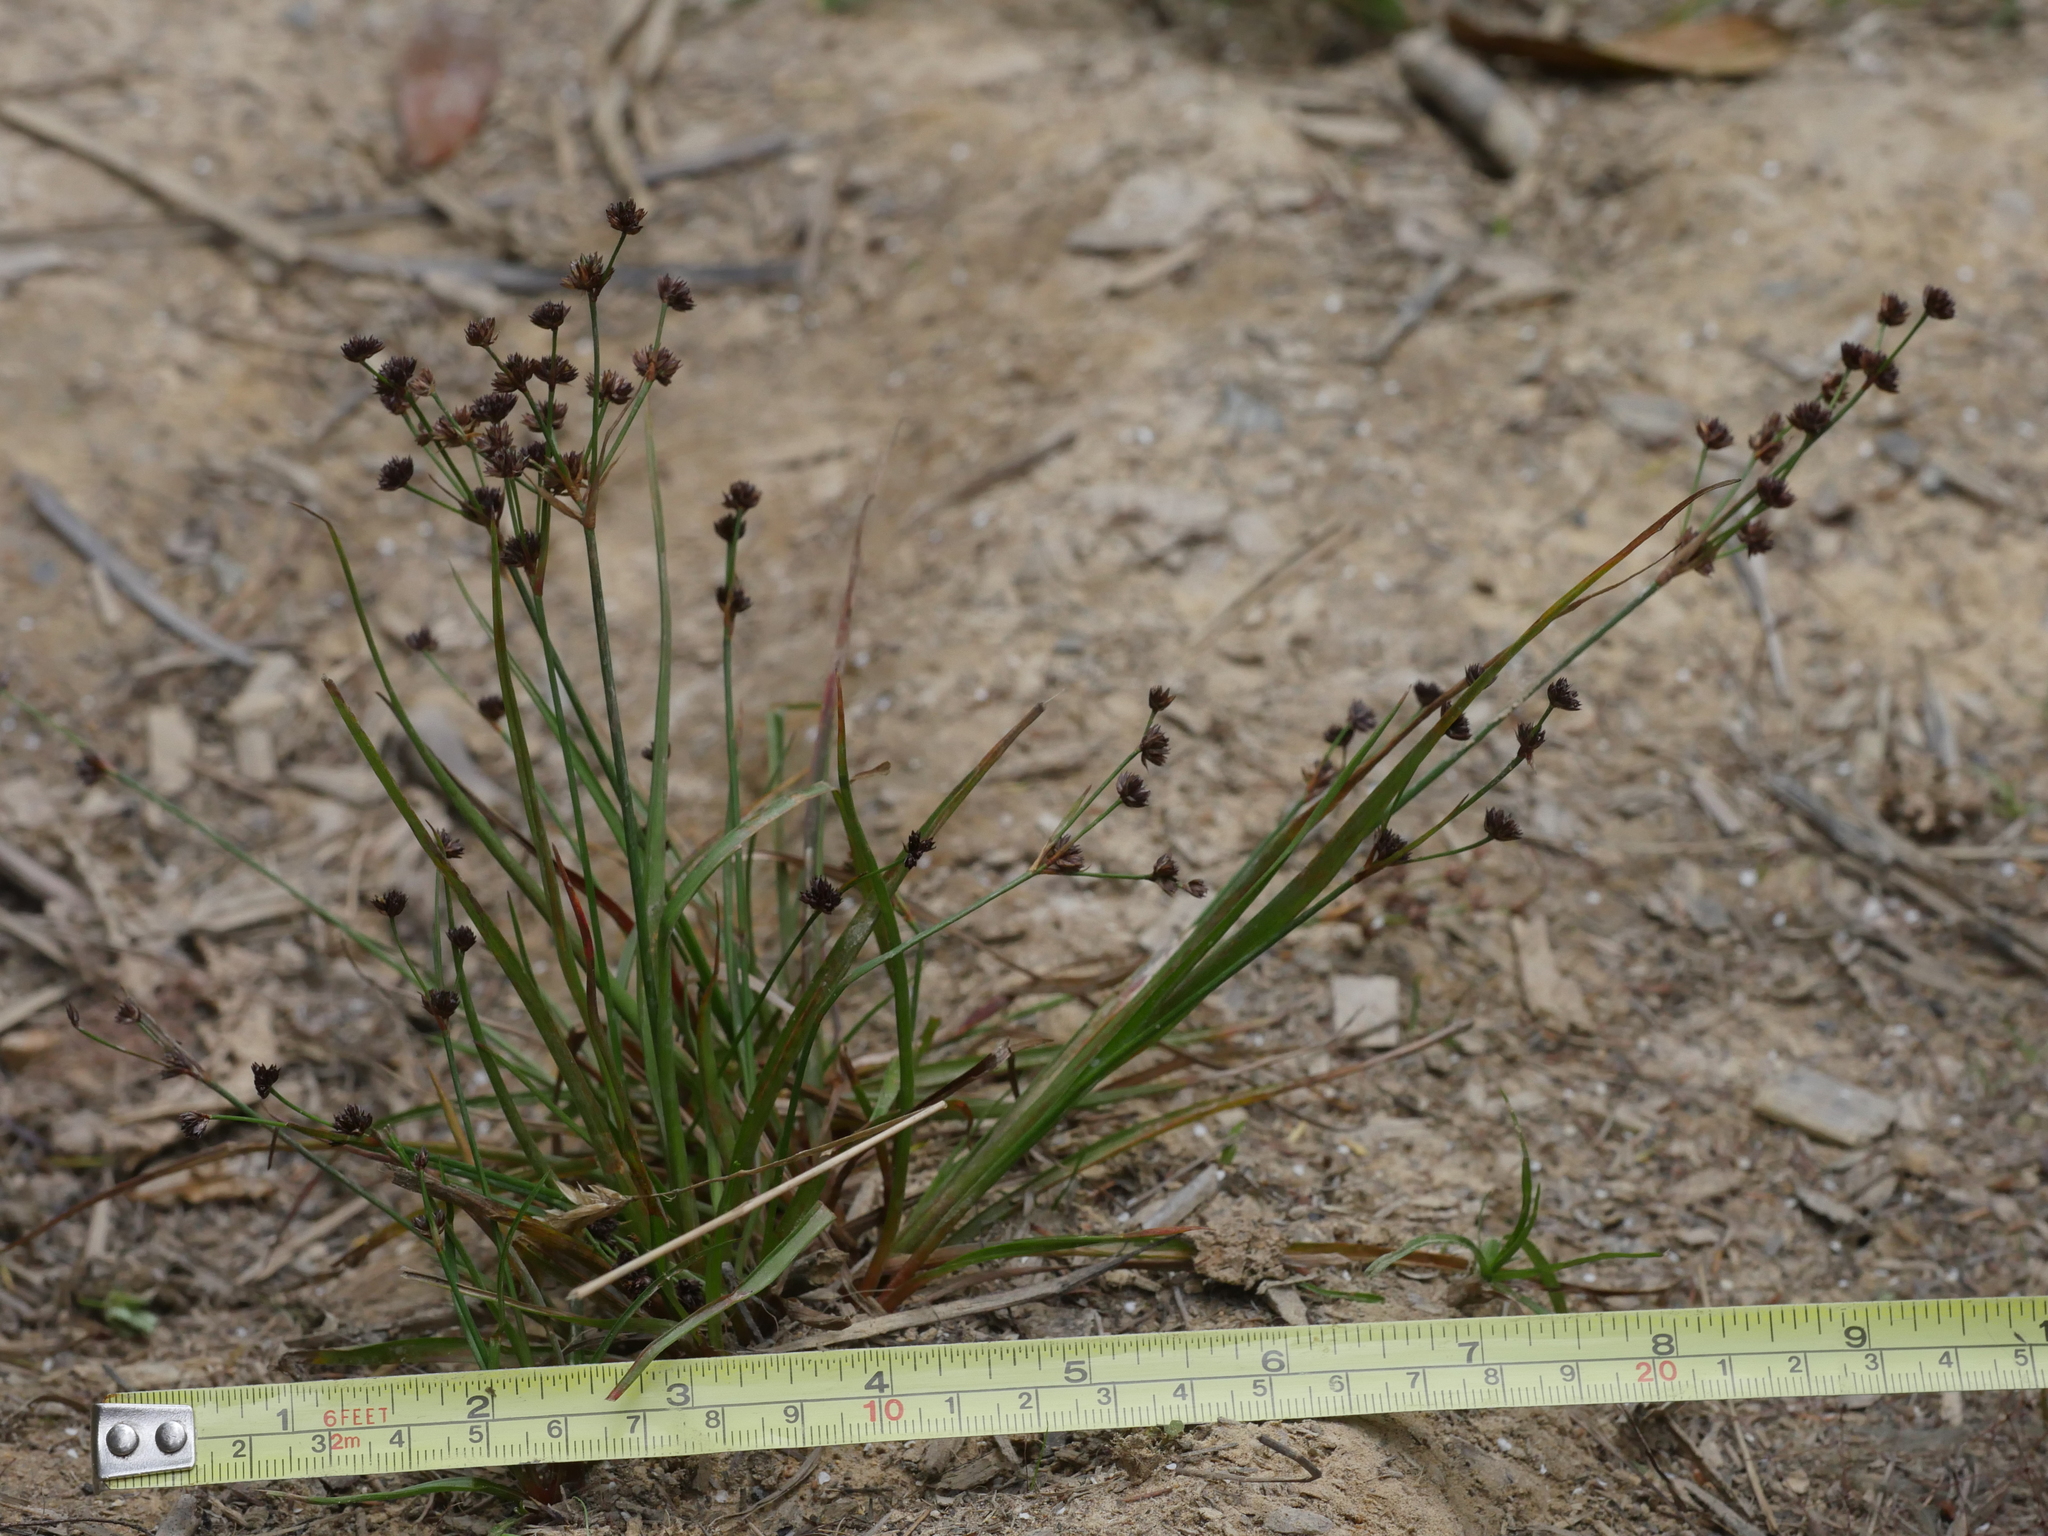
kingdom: Plantae
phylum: Tracheophyta
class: Liliopsida
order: Poales
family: Juncaceae
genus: Juncus
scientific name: Juncus planifolius
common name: Broadleaf rush
